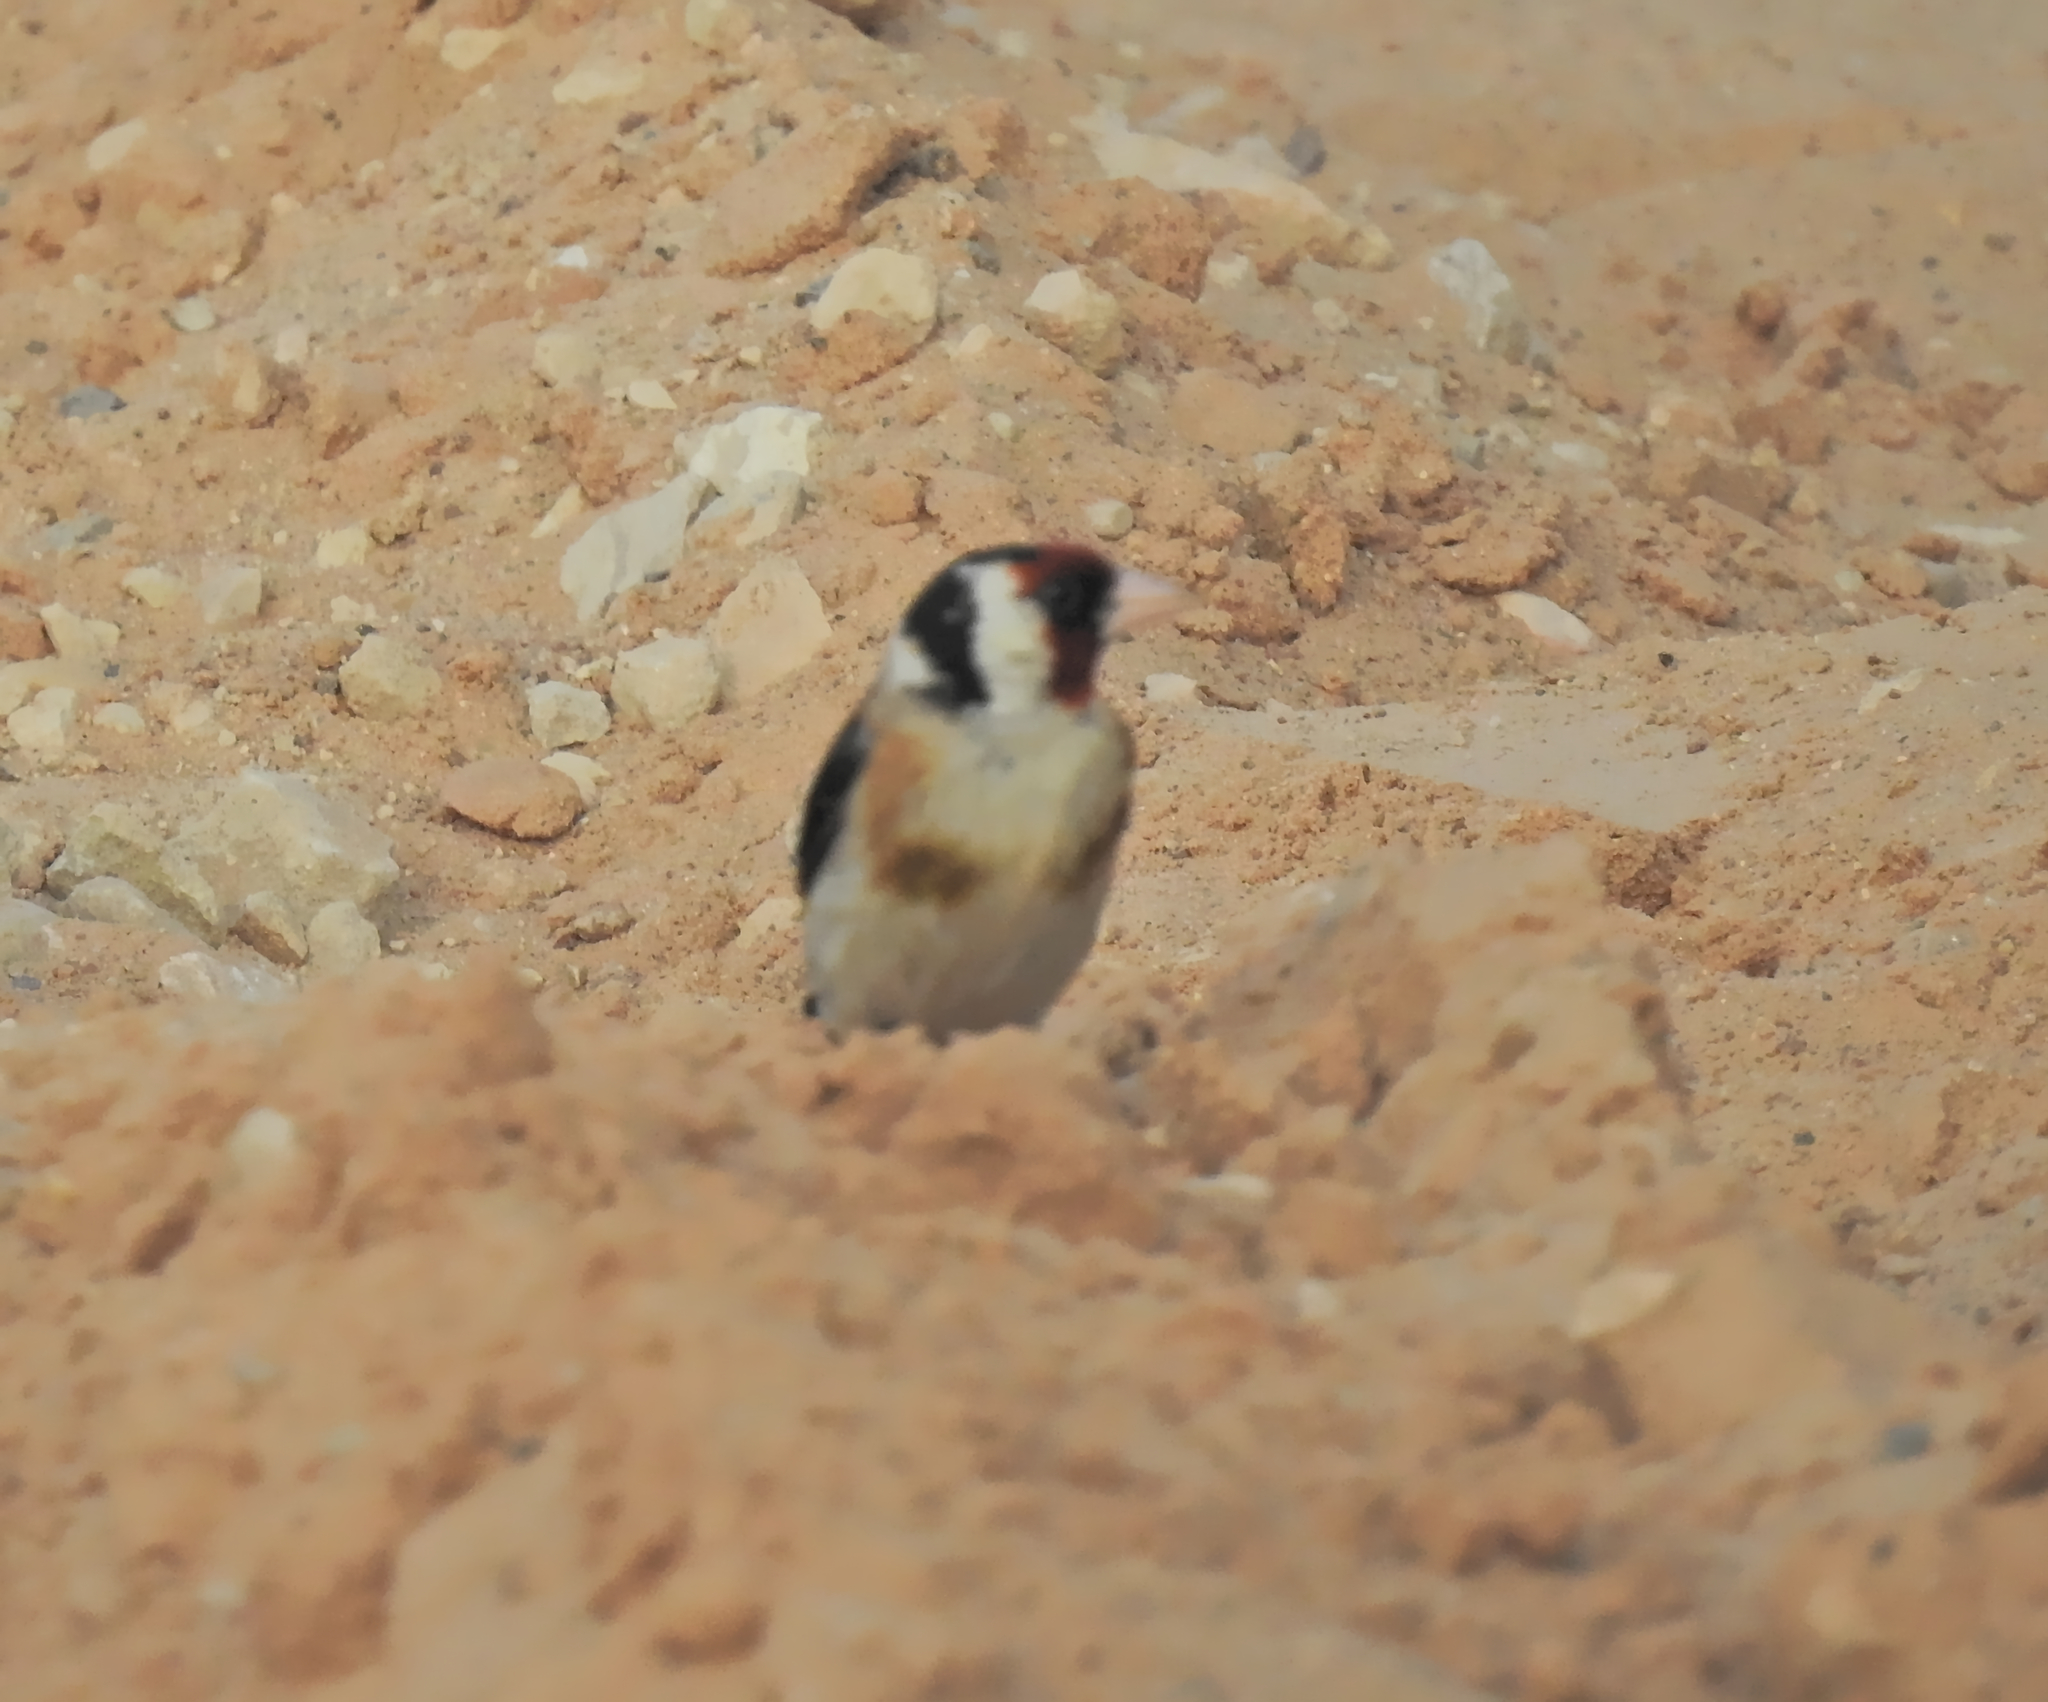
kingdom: Animalia
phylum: Chordata
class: Aves
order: Passeriformes
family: Fringillidae
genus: Carduelis
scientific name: Carduelis carduelis
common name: European goldfinch
